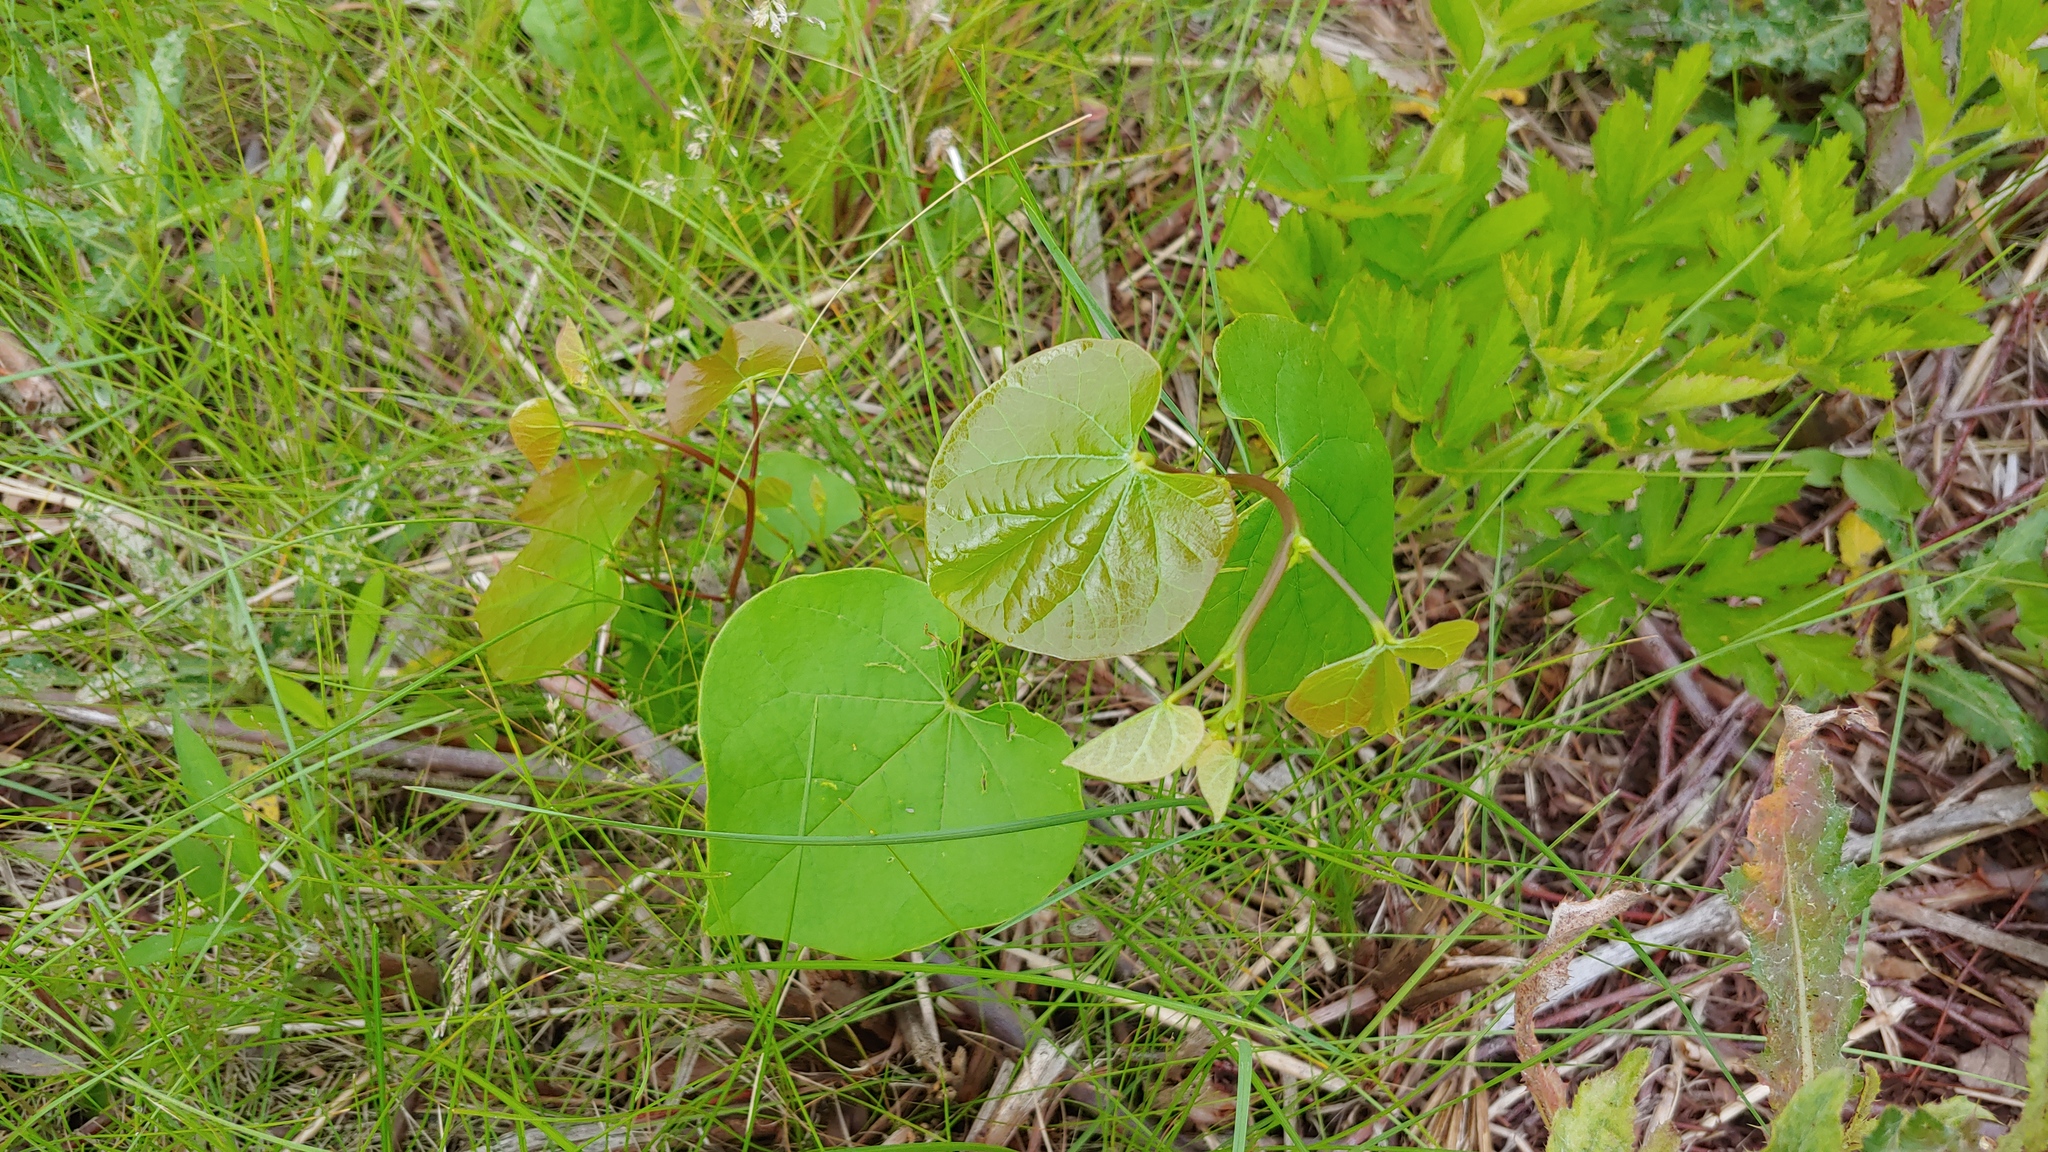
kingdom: Plantae
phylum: Tracheophyta
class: Magnoliopsida
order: Fabales
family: Fabaceae
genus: Cercis
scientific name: Cercis canadensis
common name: Eastern redbud
